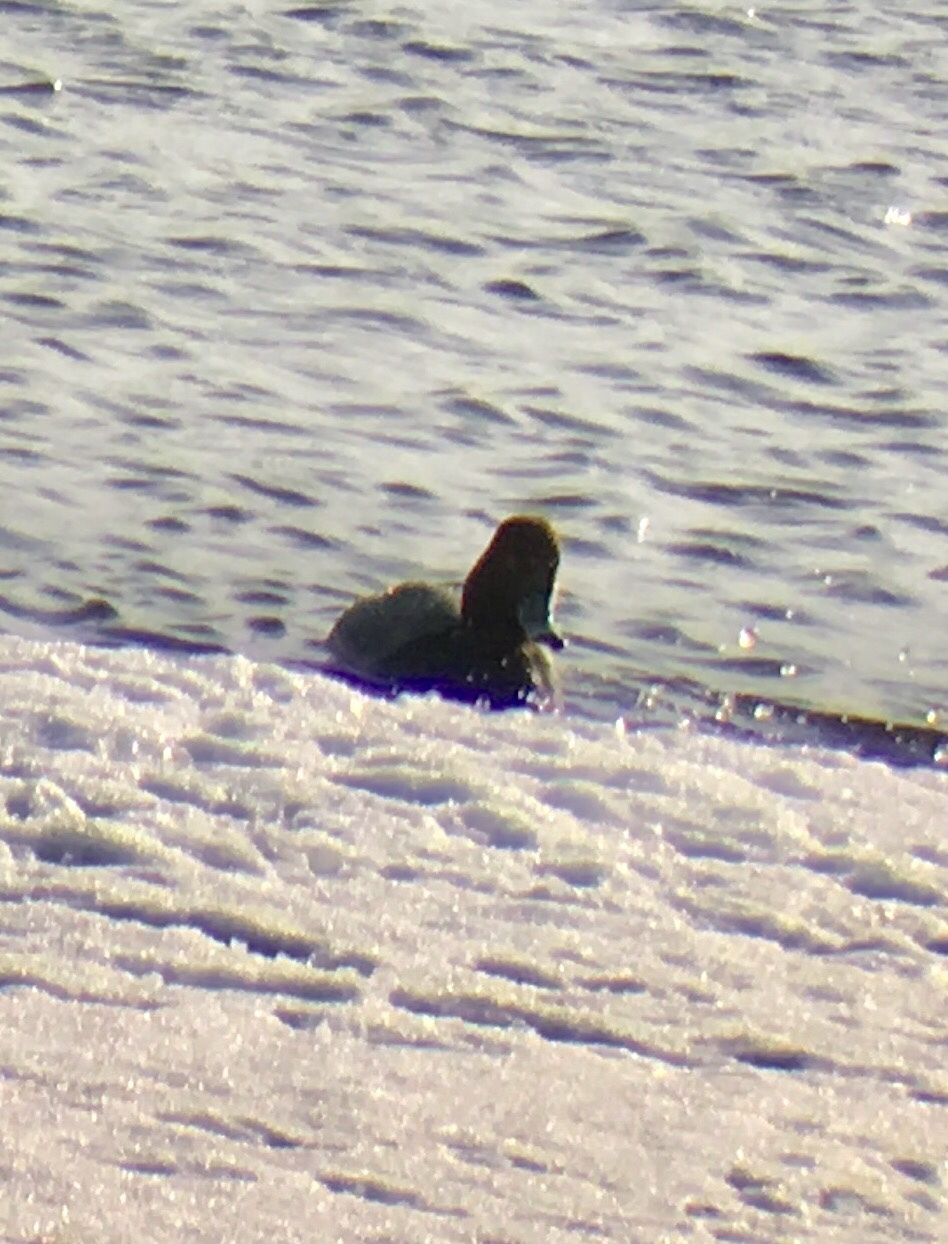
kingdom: Animalia
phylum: Chordata
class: Aves
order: Anseriformes
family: Anatidae
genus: Aythya
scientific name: Aythya americana
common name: Redhead
